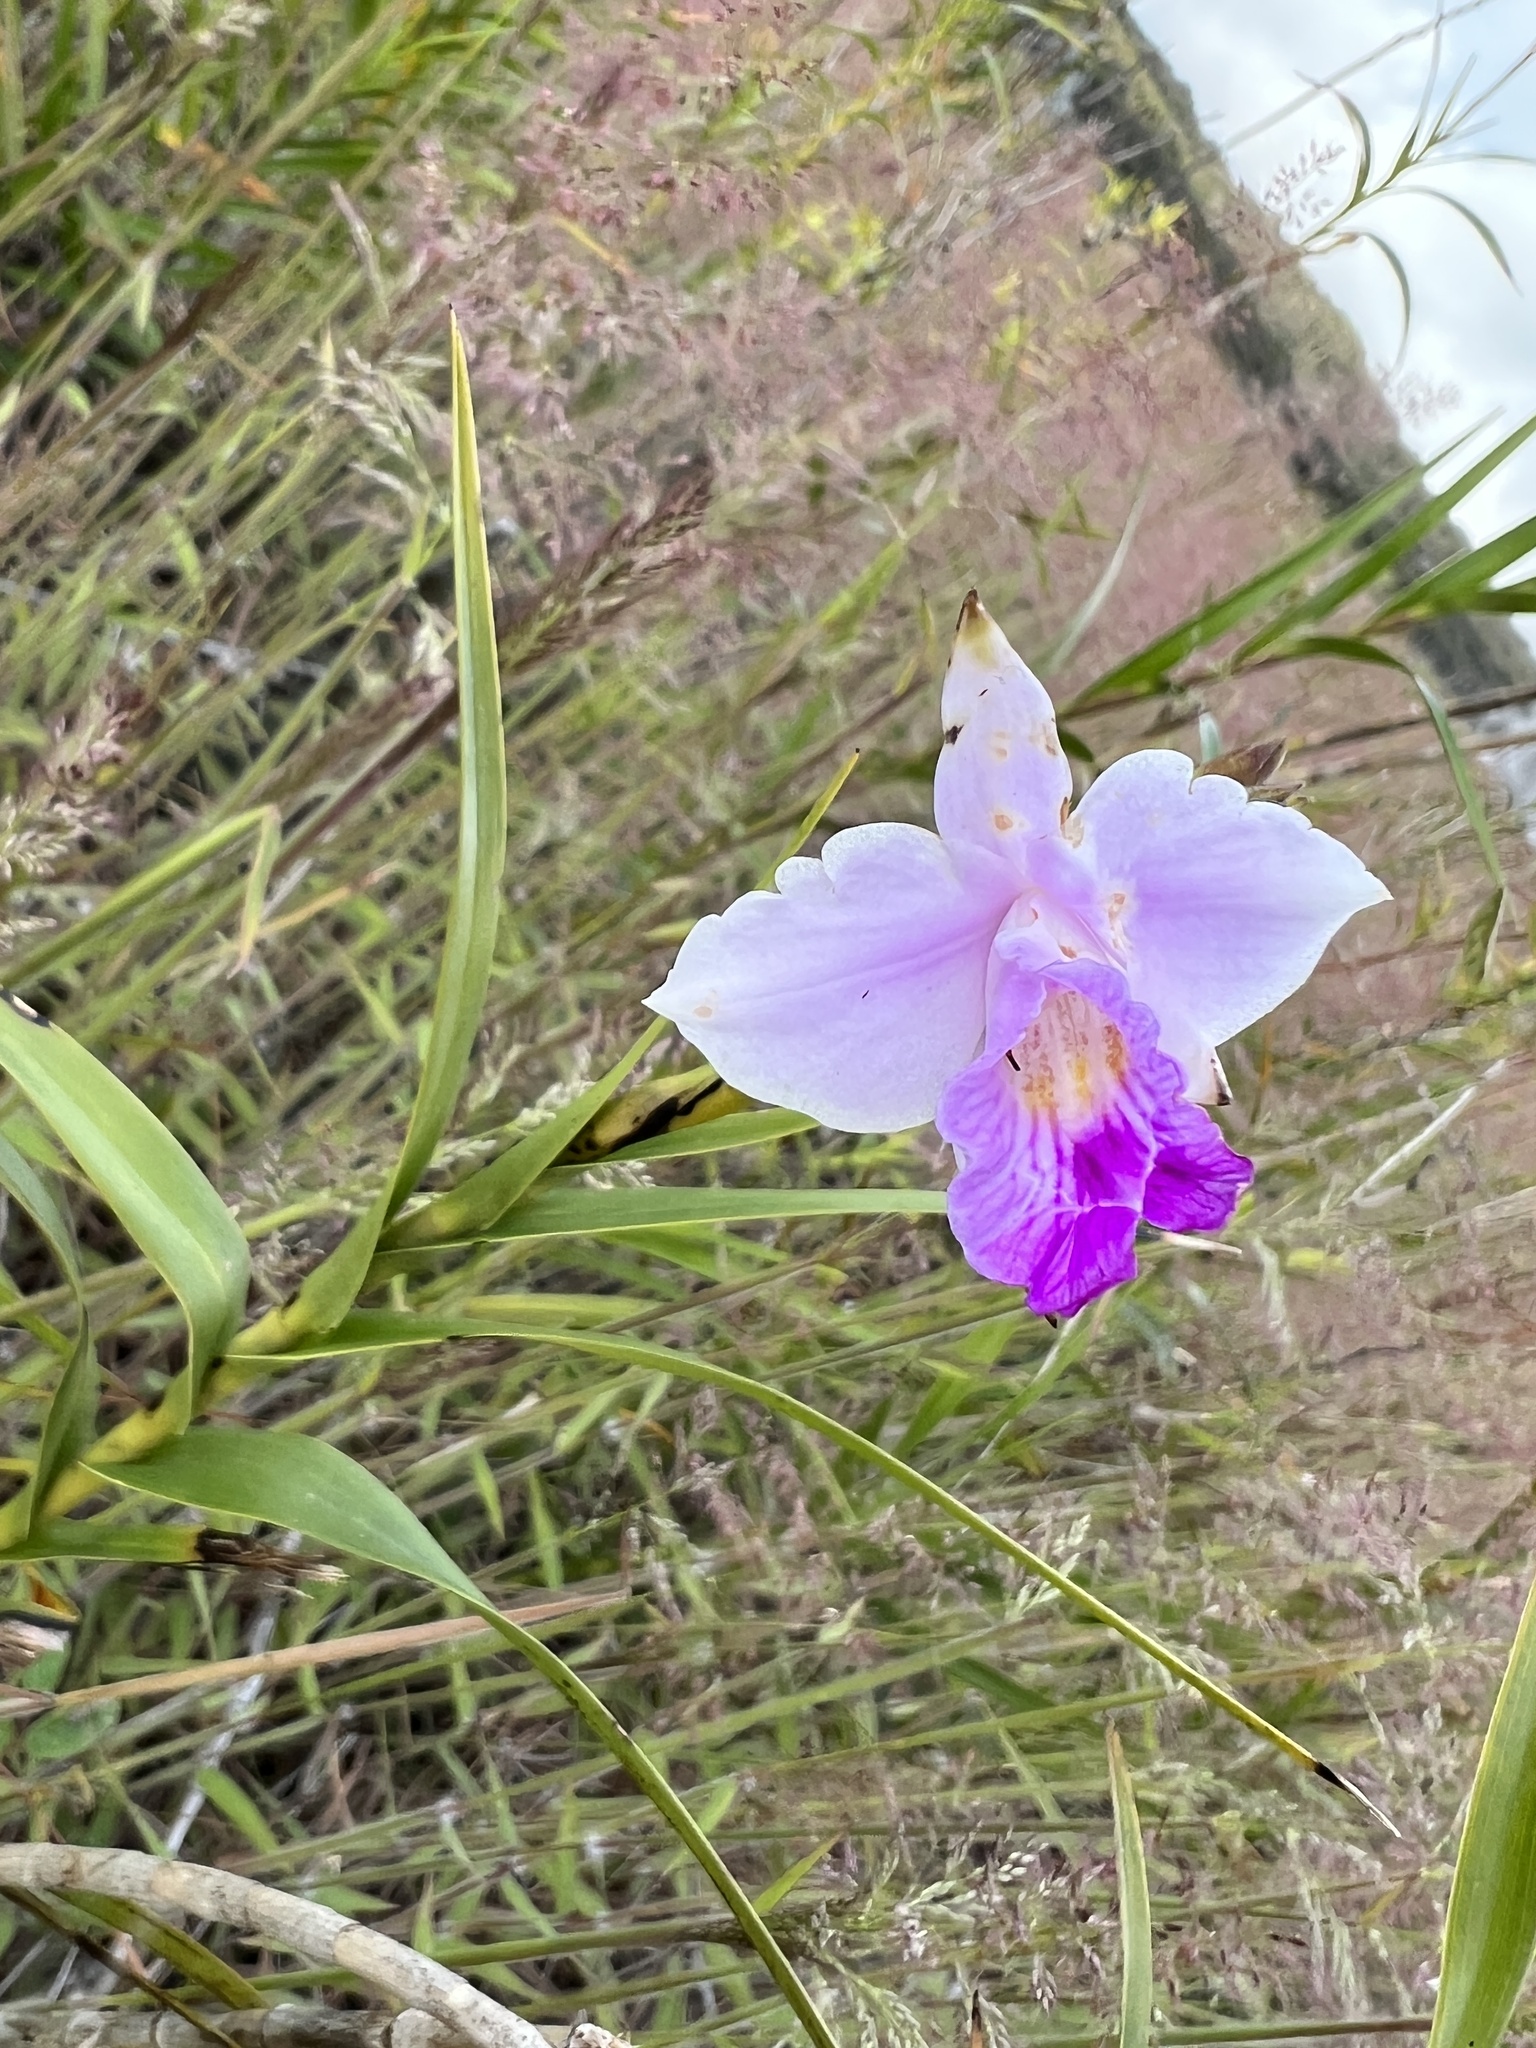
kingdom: Plantae
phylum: Tracheophyta
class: Liliopsida
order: Asparagales
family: Orchidaceae
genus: Arundina
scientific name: Arundina graminifolia
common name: Bamboo orchid
